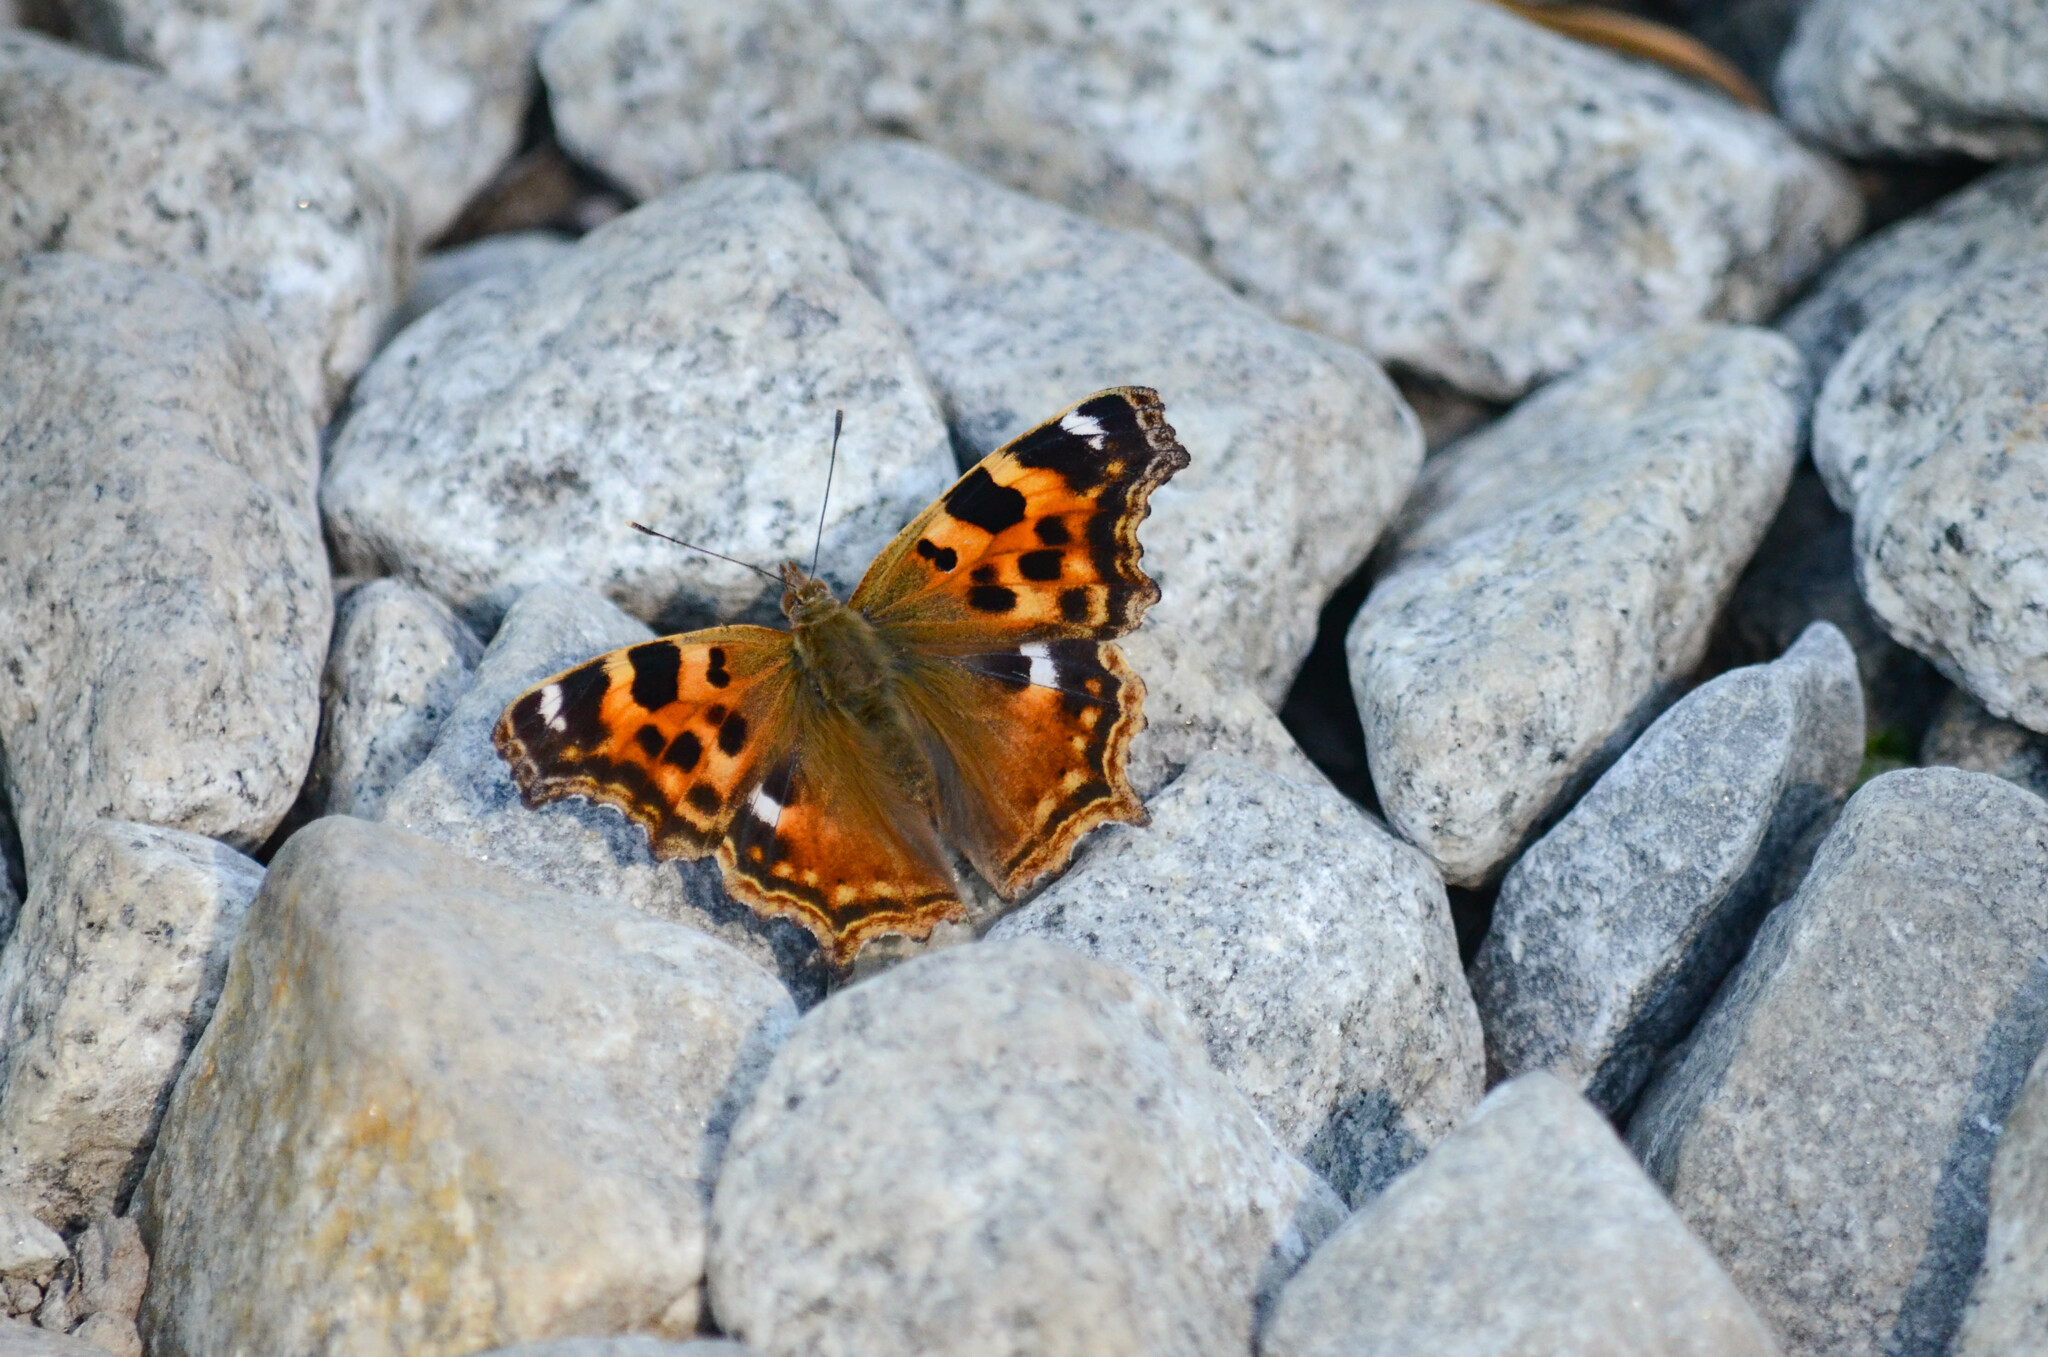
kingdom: Animalia
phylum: Arthropoda
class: Insecta
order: Lepidoptera
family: Nymphalidae
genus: Polygonia
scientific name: Polygonia vaualbum
